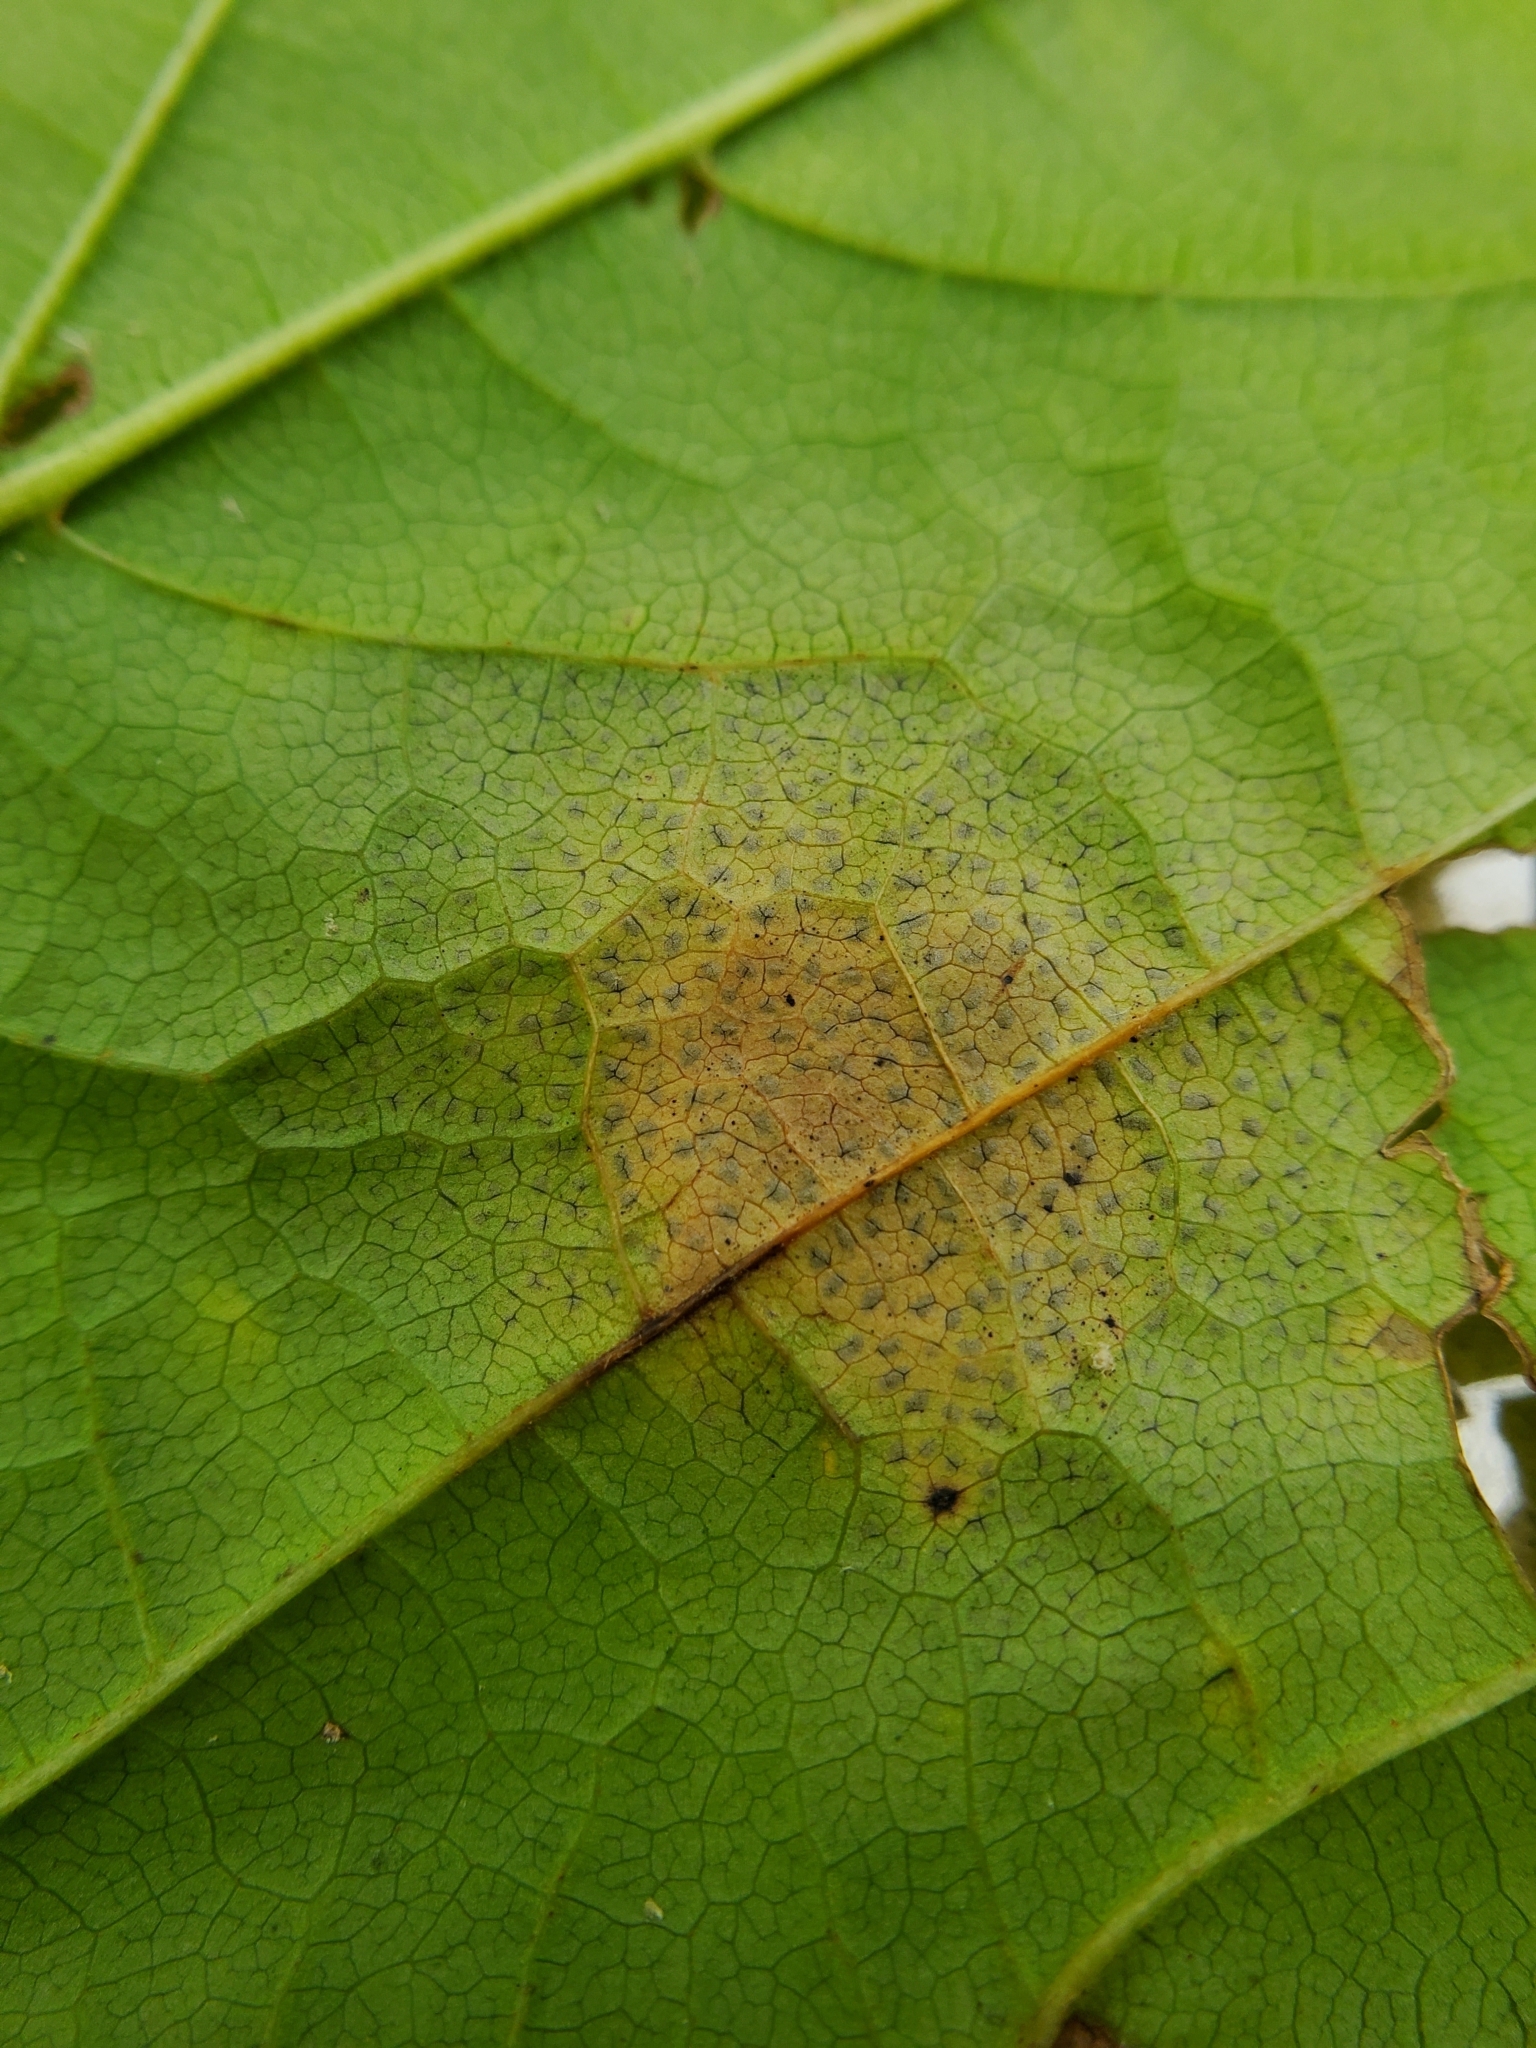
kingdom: Fungi
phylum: Ascomycota
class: Leotiomycetes
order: Rhytismatales
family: Rhytismataceae
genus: Rhytisma
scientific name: Rhytisma punctatum
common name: Speckled tar spot
